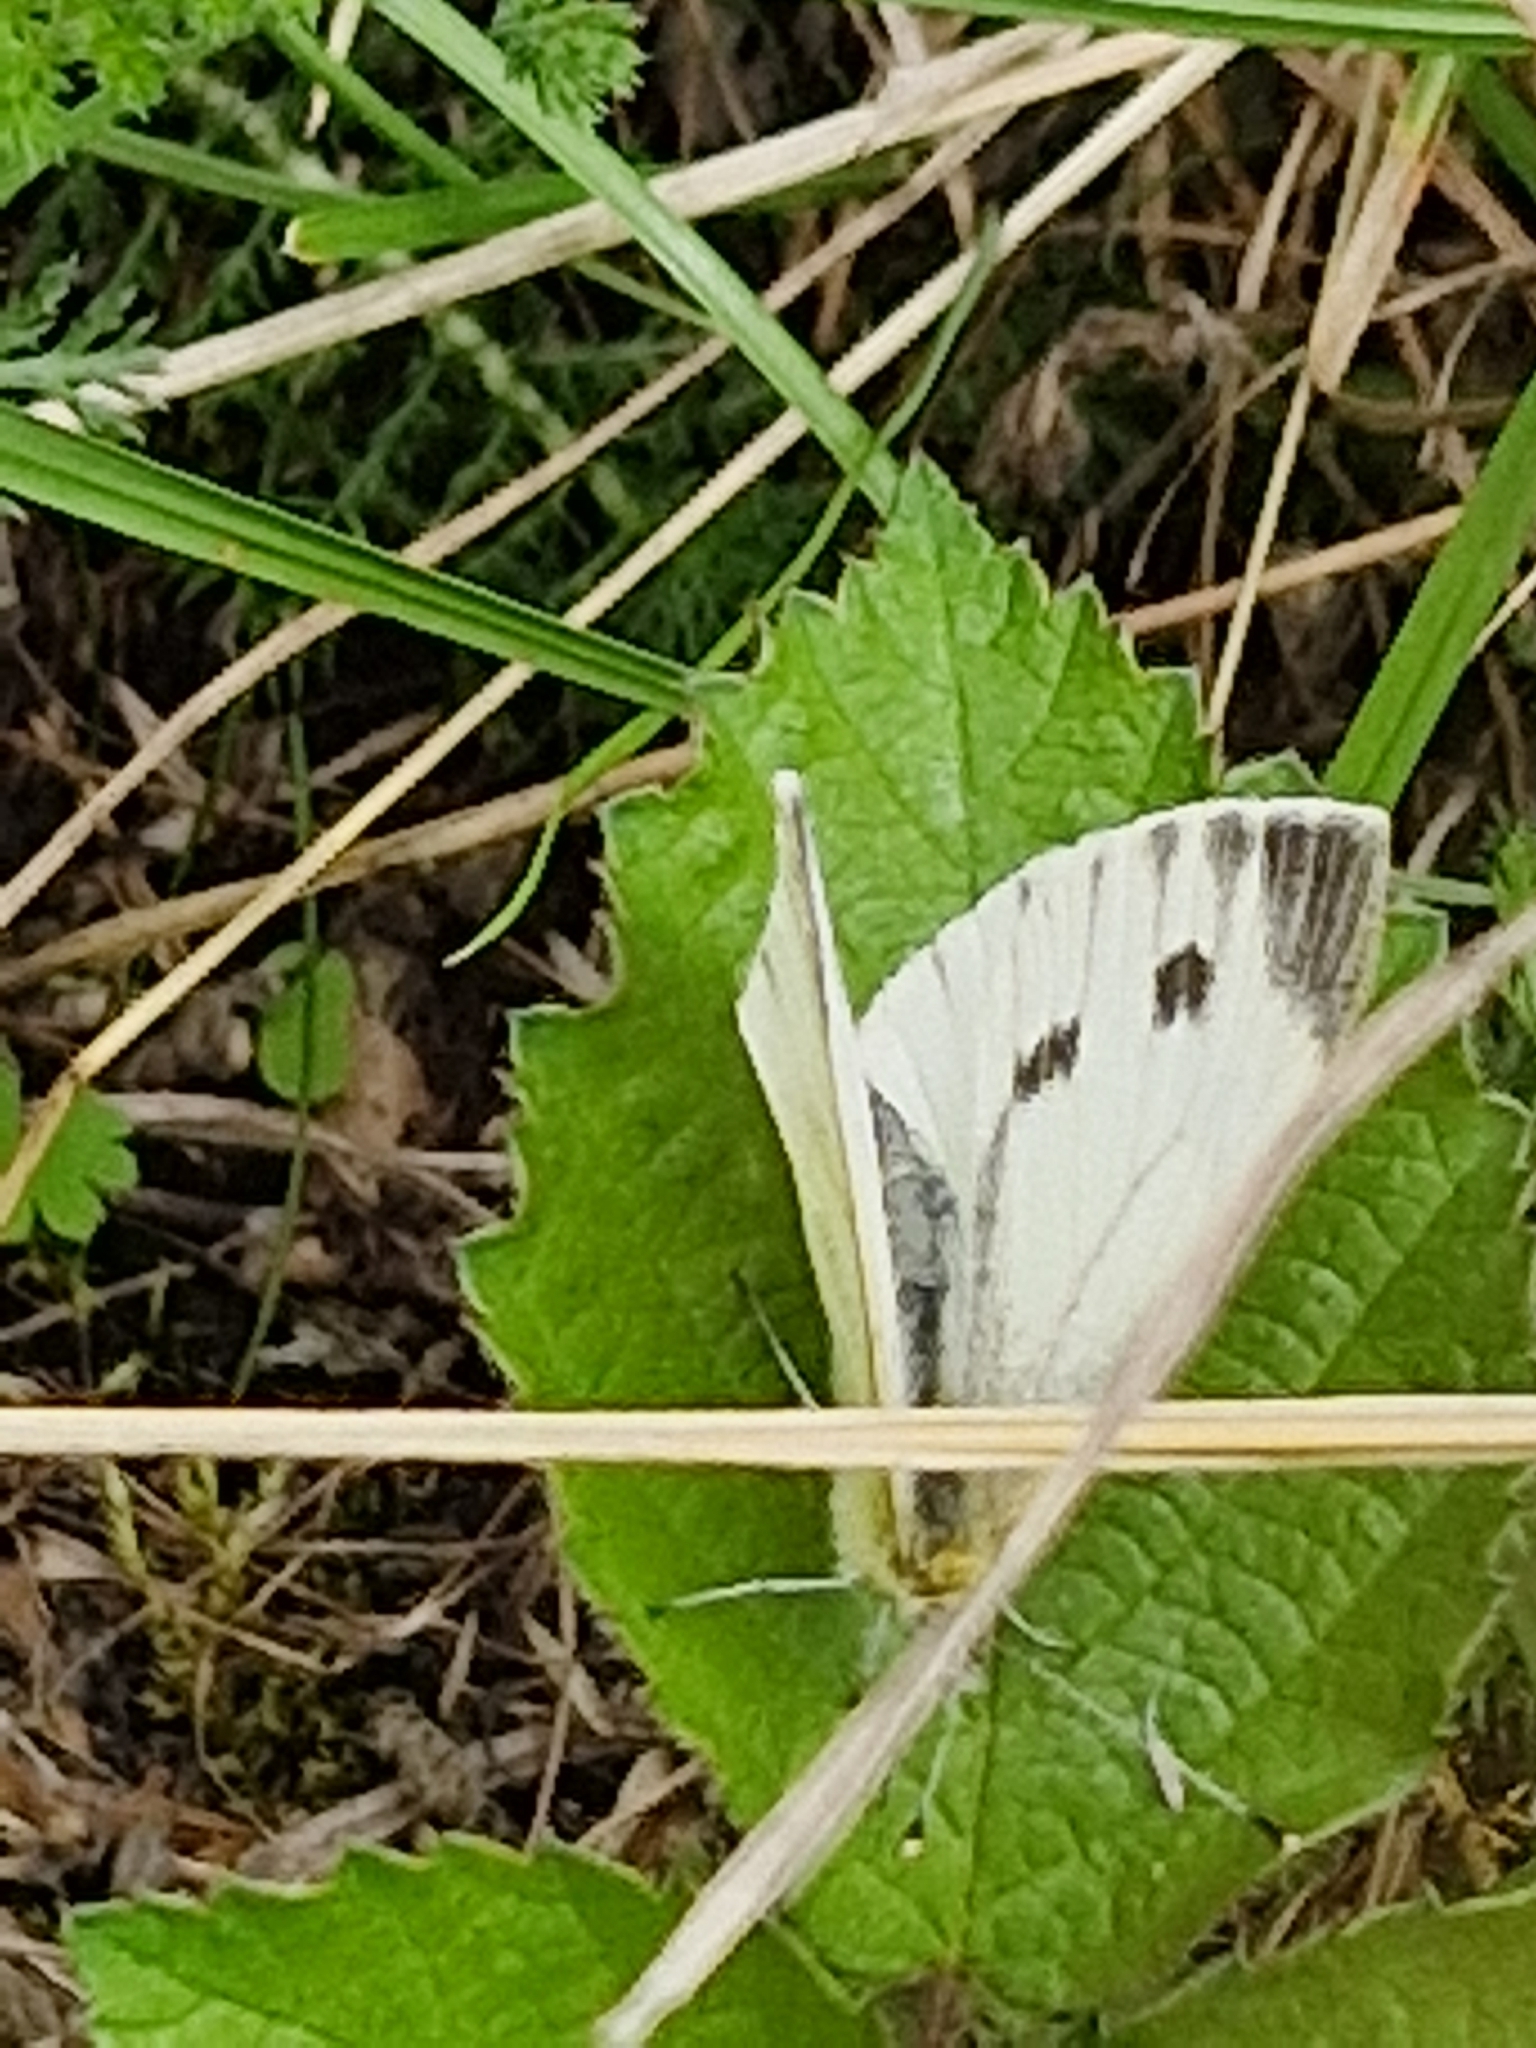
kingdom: Animalia
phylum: Arthropoda
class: Insecta
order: Lepidoptera
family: Pieridae
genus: Pieris
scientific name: Pieris napi
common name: Green-veined white
